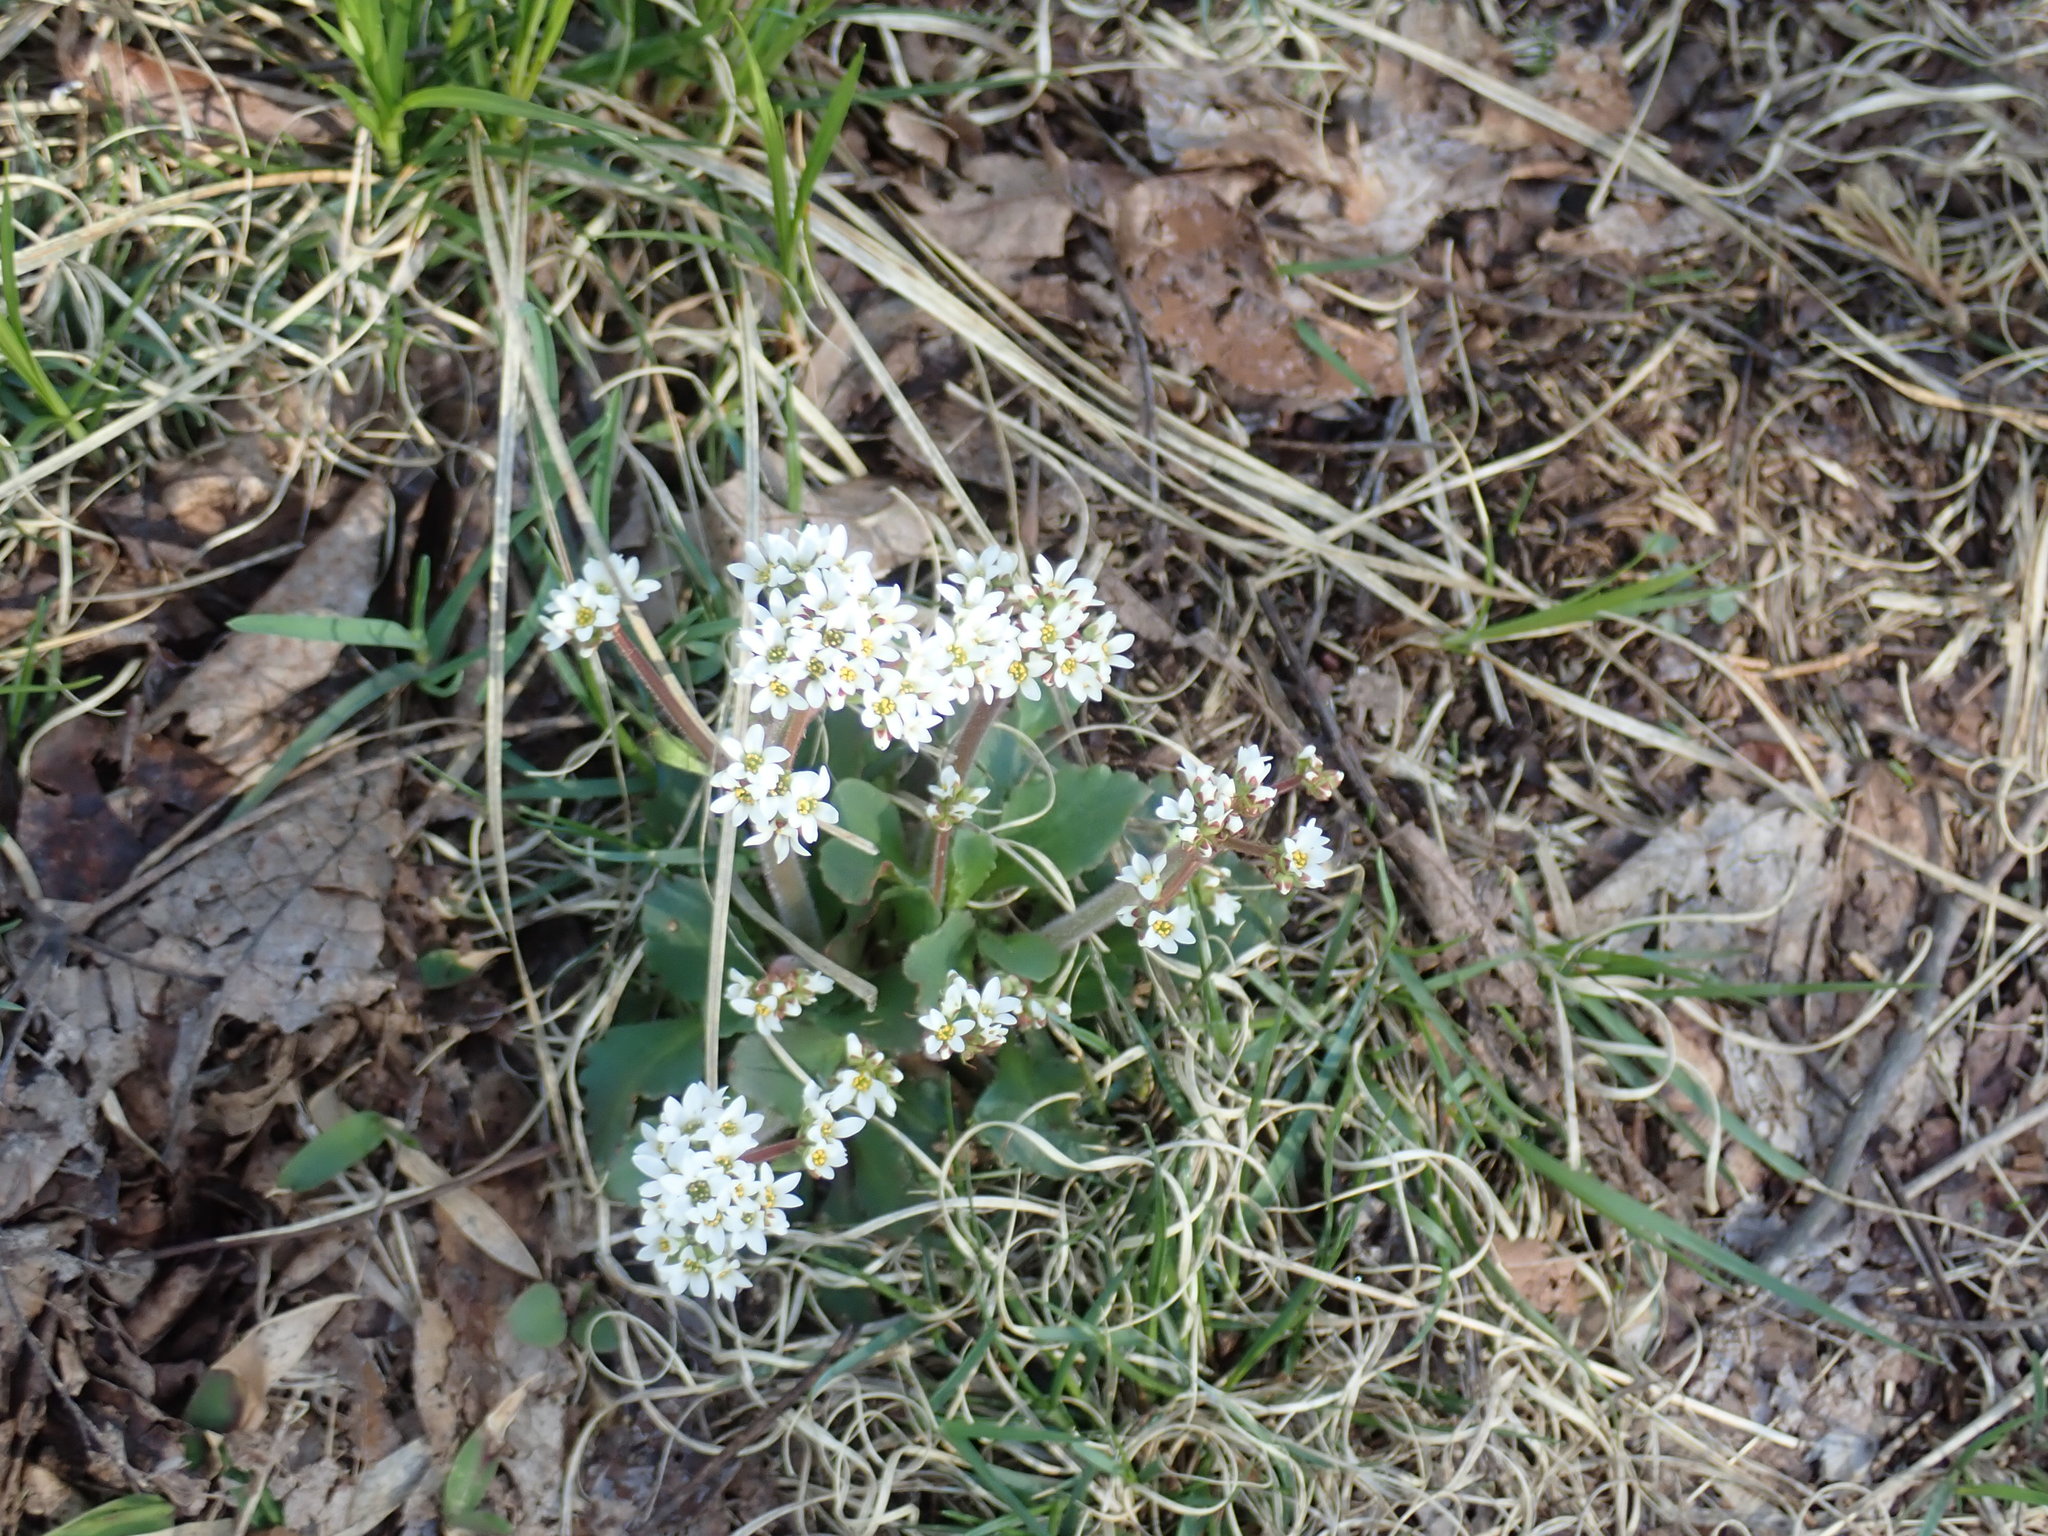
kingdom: Plantae
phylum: Tracheophyta
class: Magnoliopsida
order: Saxifragales
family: Saxifragaceae
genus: Micranthes
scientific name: Micranthes virginiensis
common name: Early saxifrage
